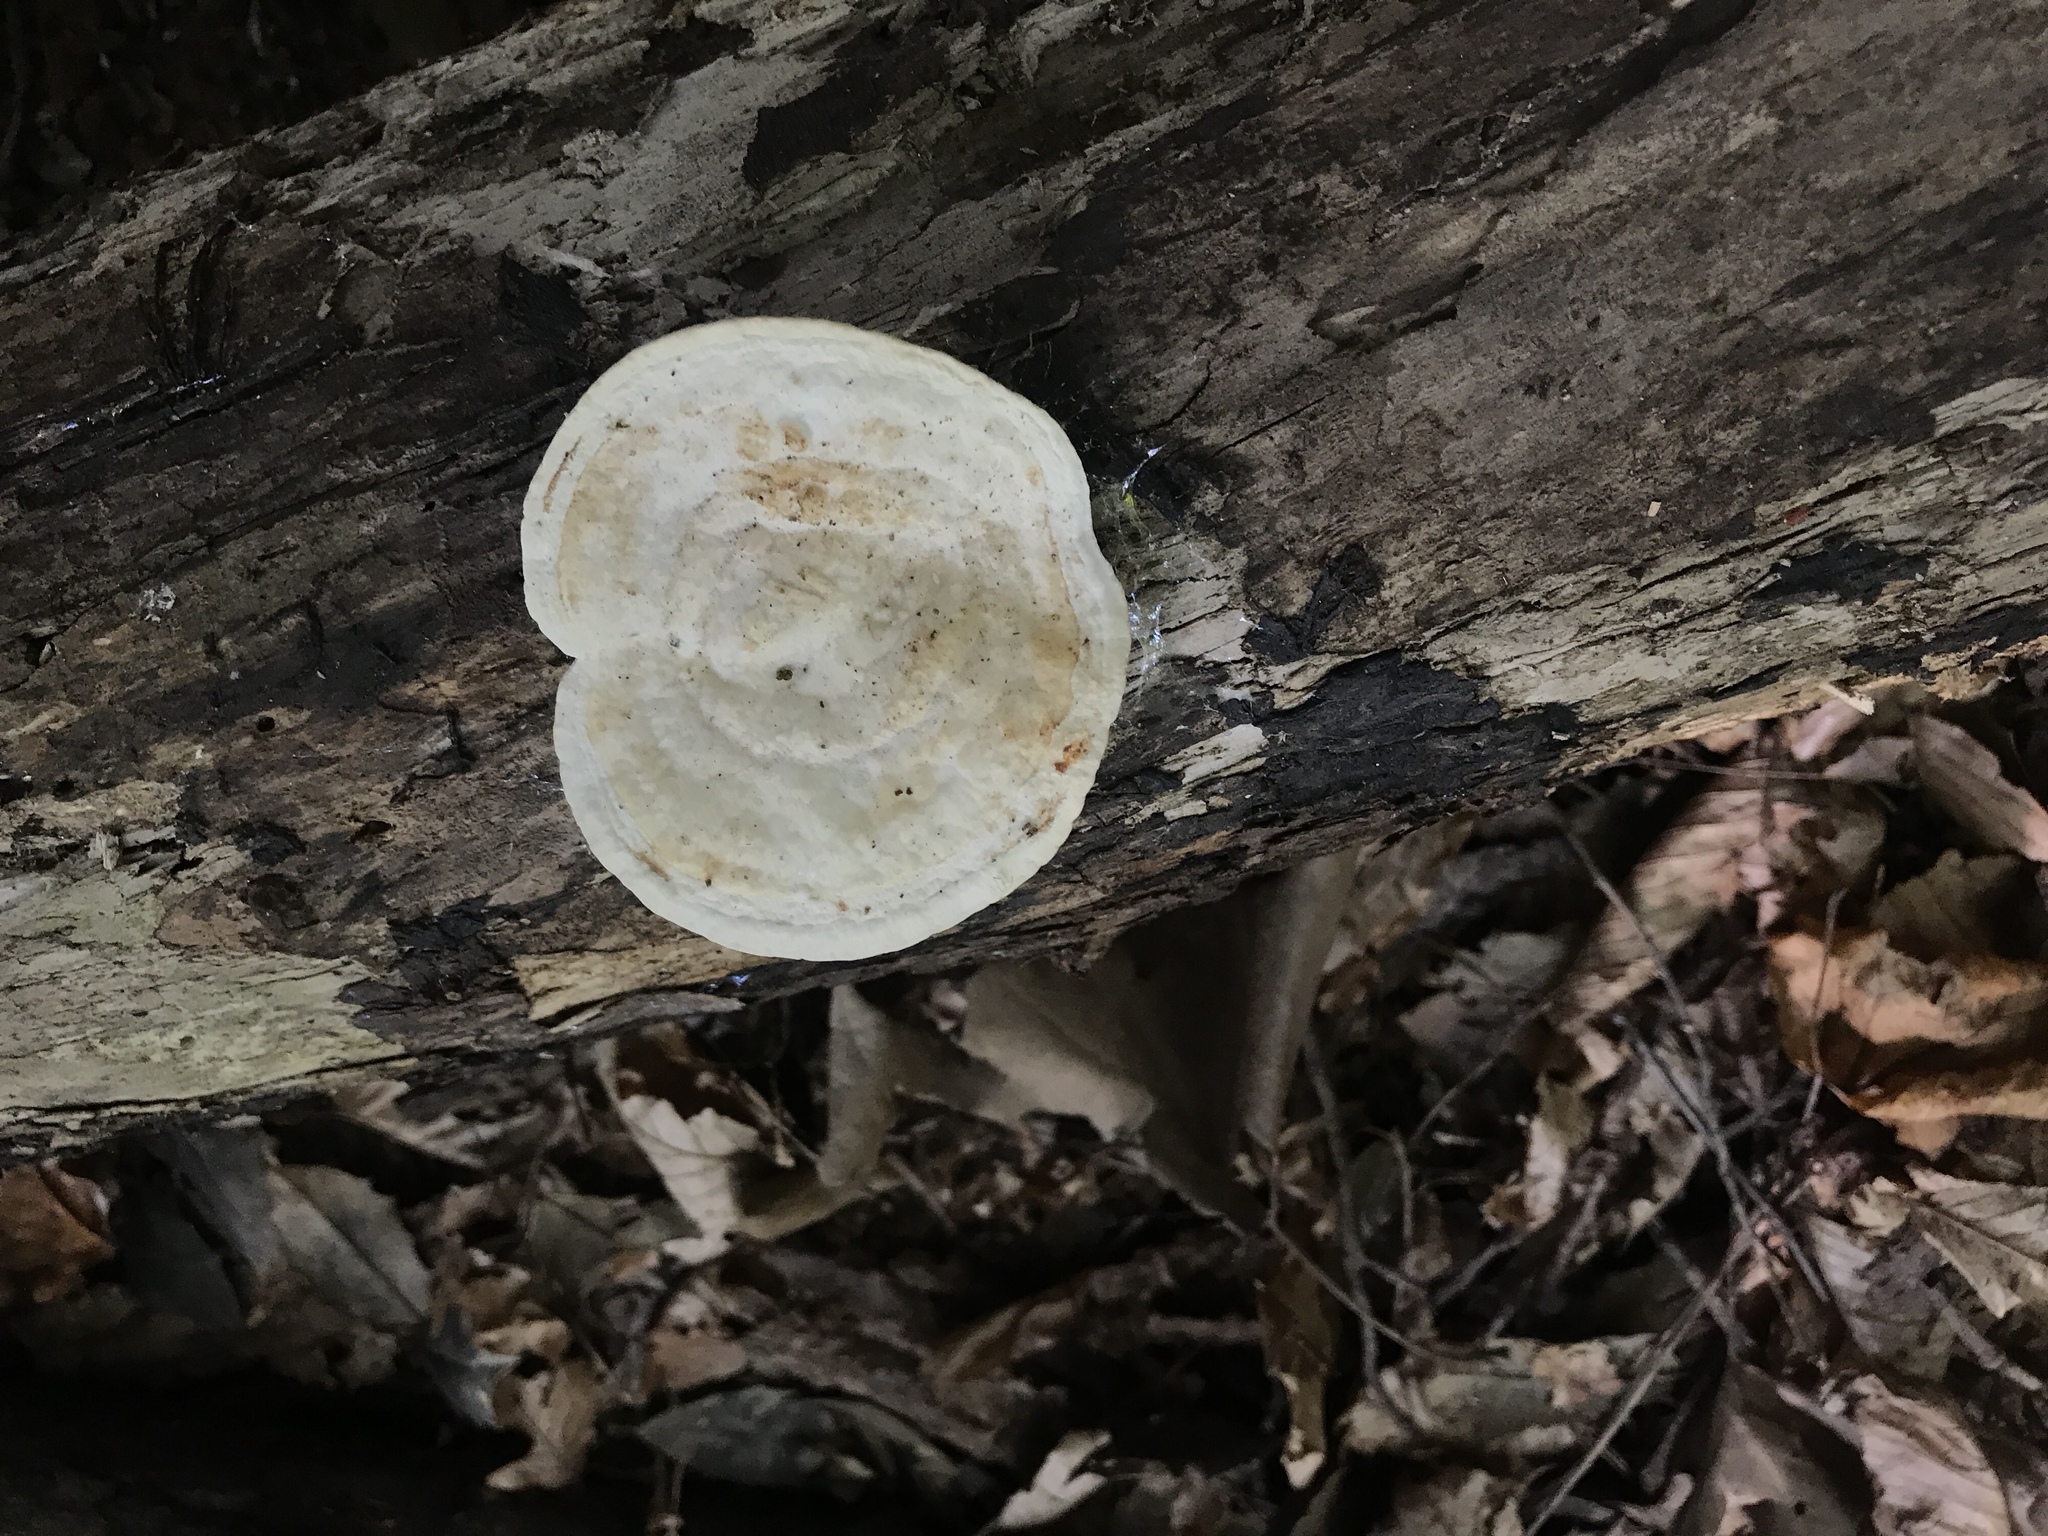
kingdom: Fungi
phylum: Basidiomycota
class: Agaricomycetes
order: Polyporales
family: Polyporaceae
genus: Trametes
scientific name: Trametes gibbosa
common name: Lumpy bracket
